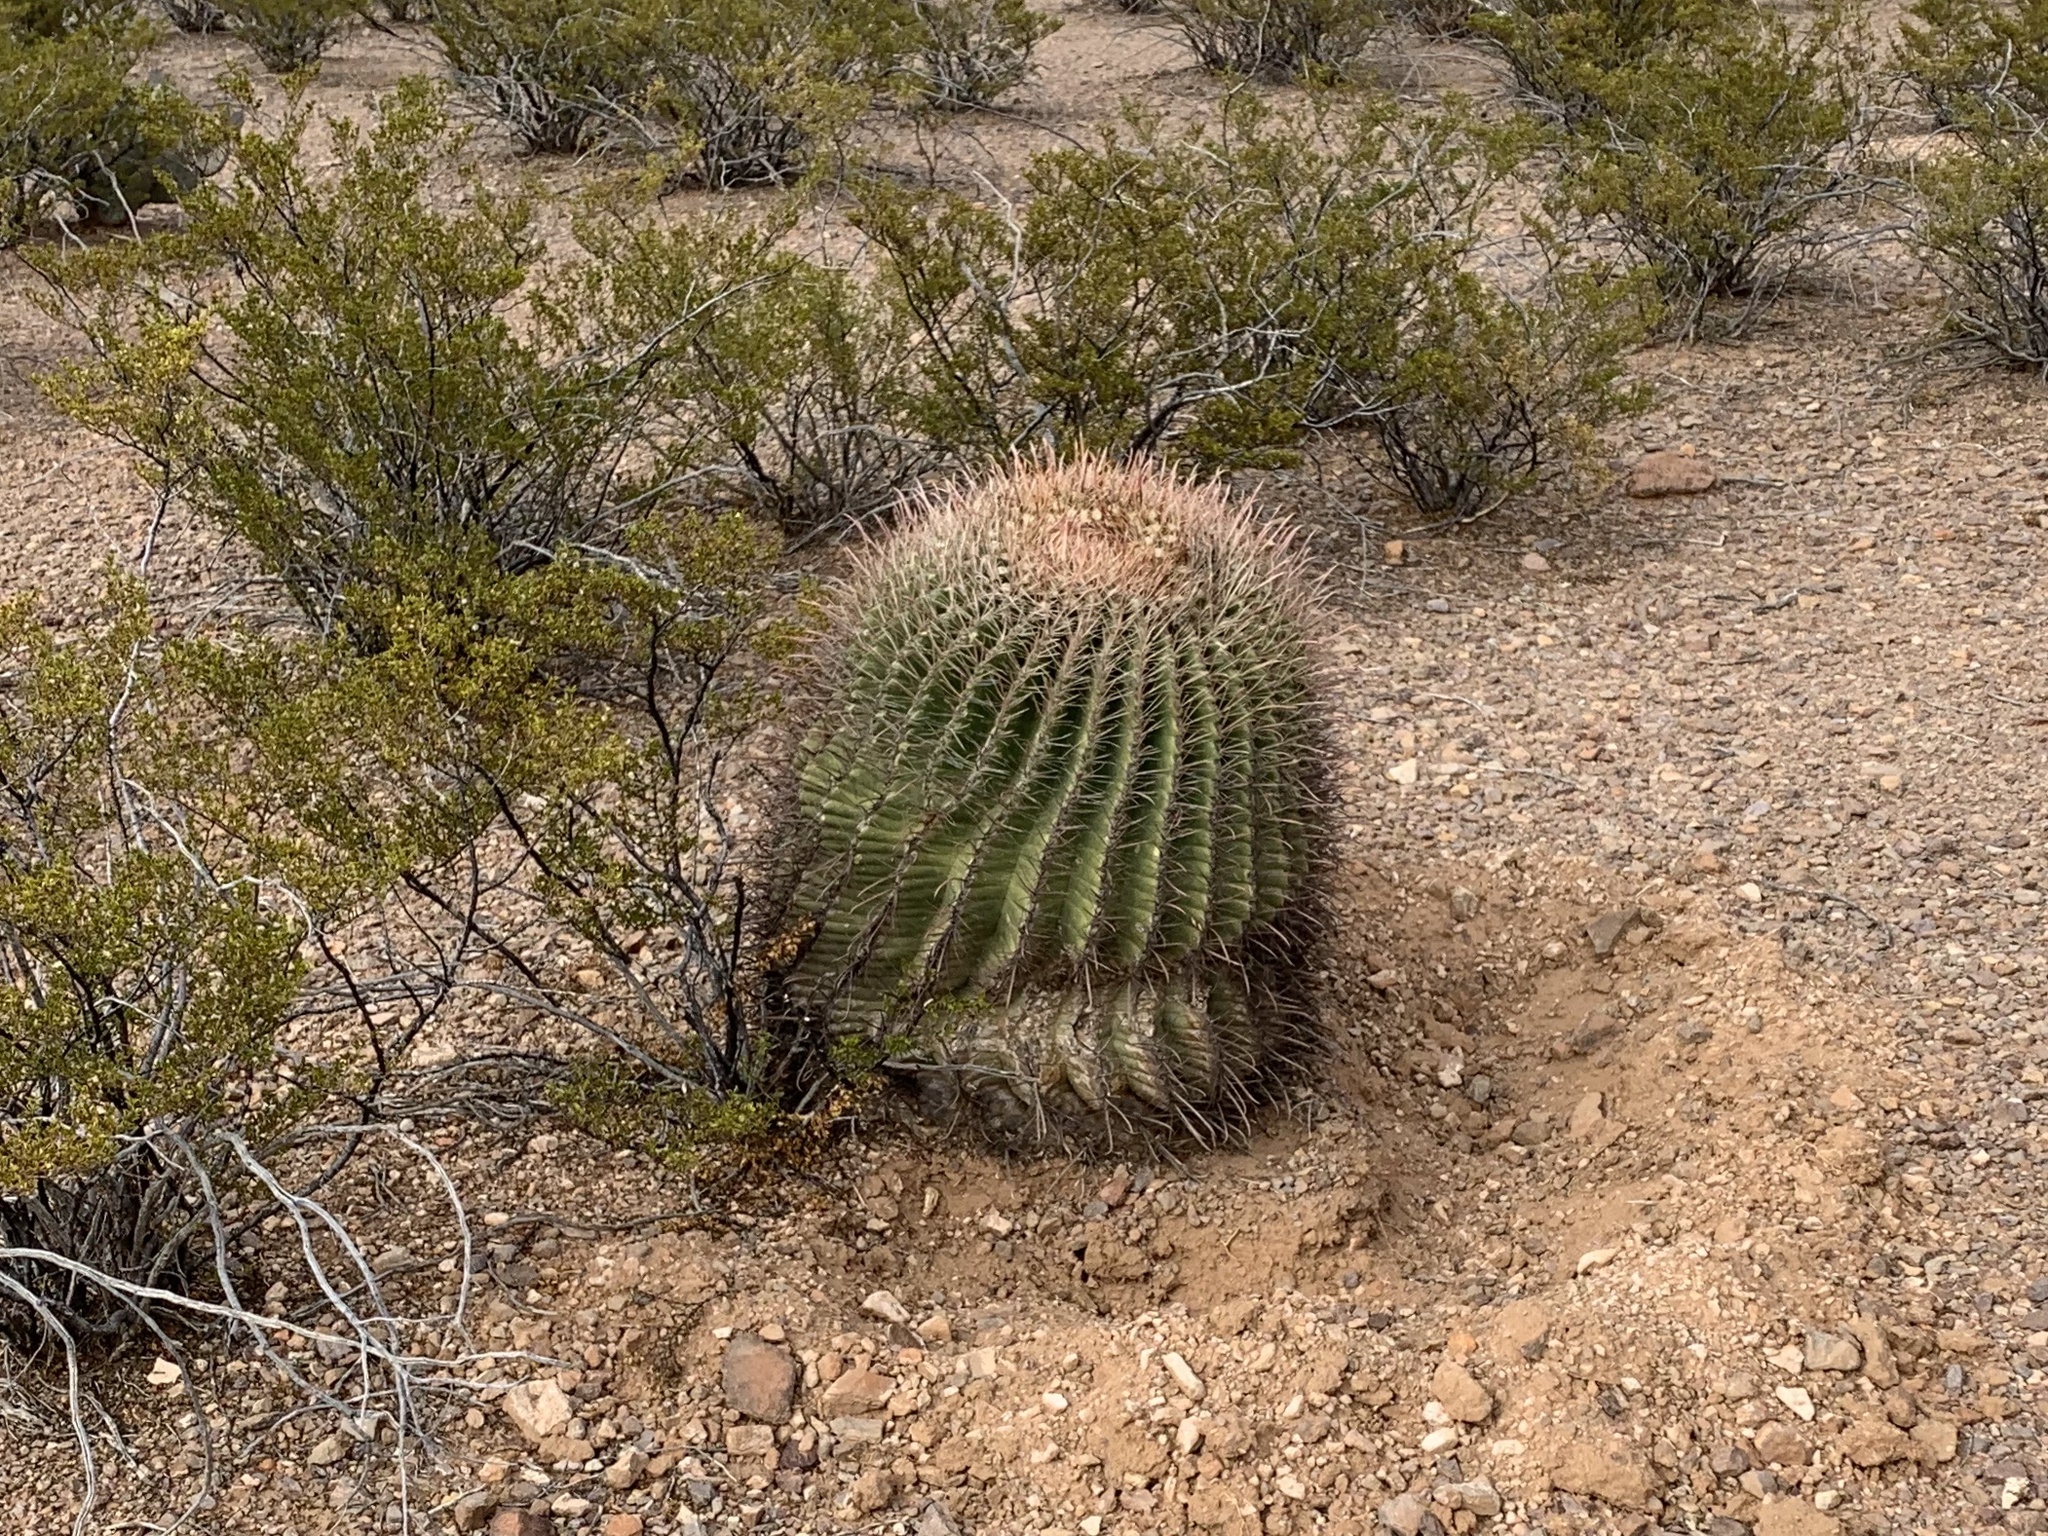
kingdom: Plantae
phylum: Tracheophyta
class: Magnoliopsida
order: Caryophyllales
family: Cactaceae
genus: Ferocactus
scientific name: Ferocactus wislizeni
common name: Candy barrel cactus
